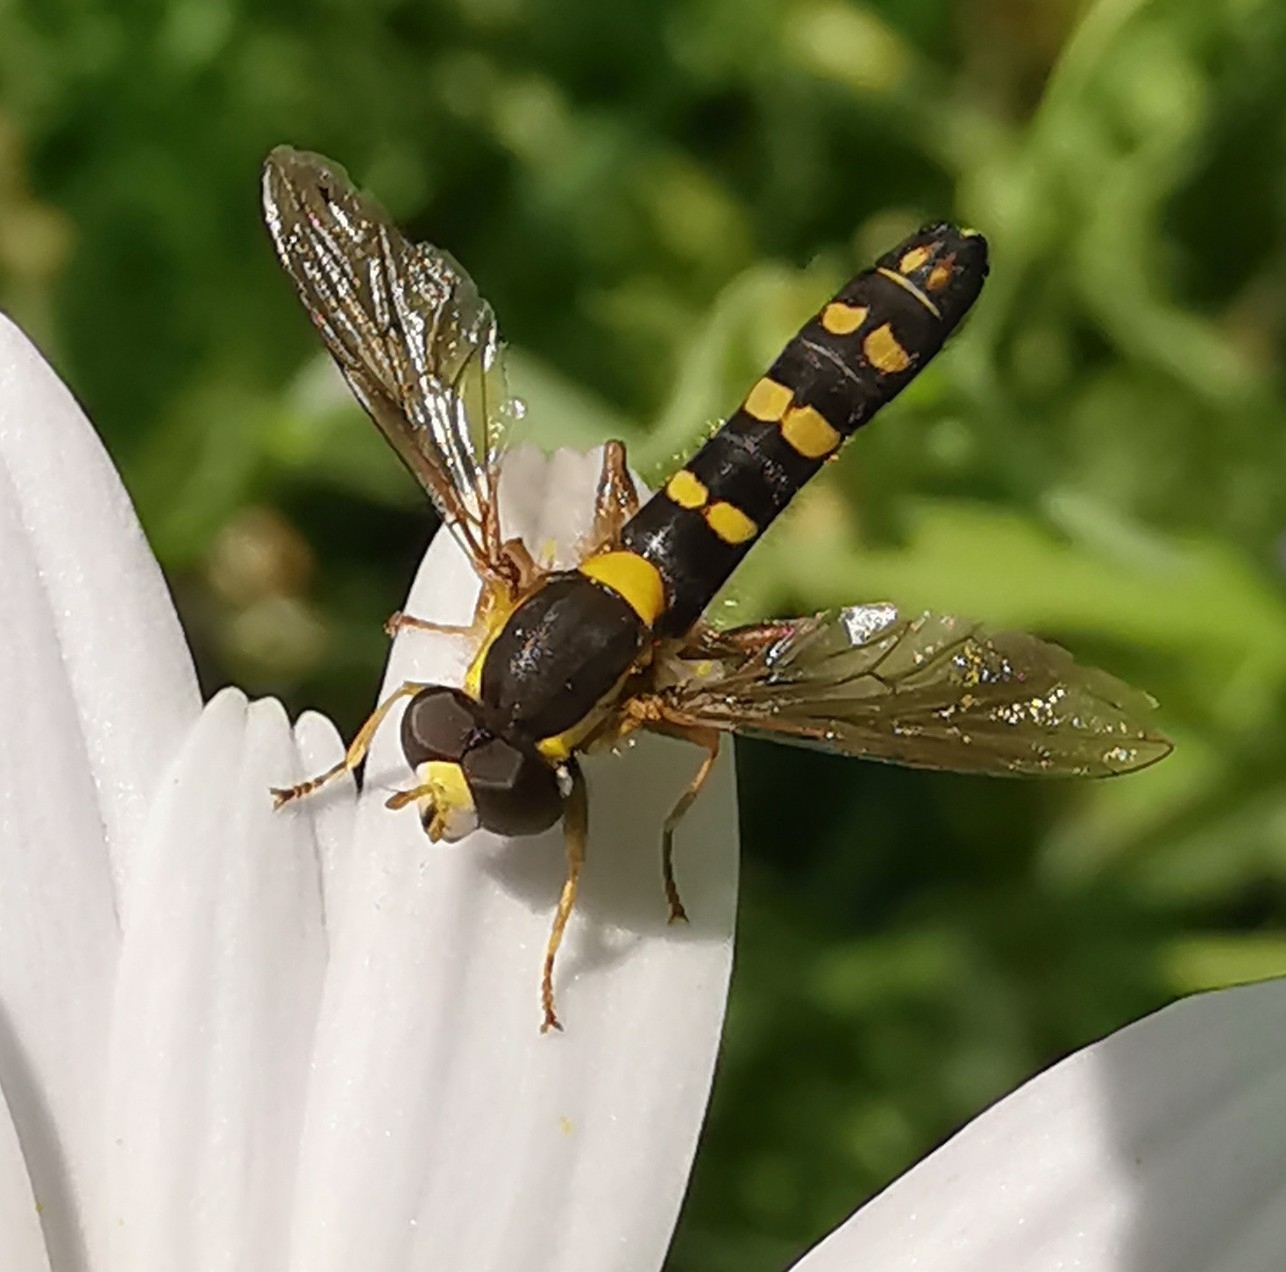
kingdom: Animalia
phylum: Arthropoda
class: Insecta
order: Diptera
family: Syrphidae
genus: Sphaerophoria
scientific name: Sphaerophoria scripta
